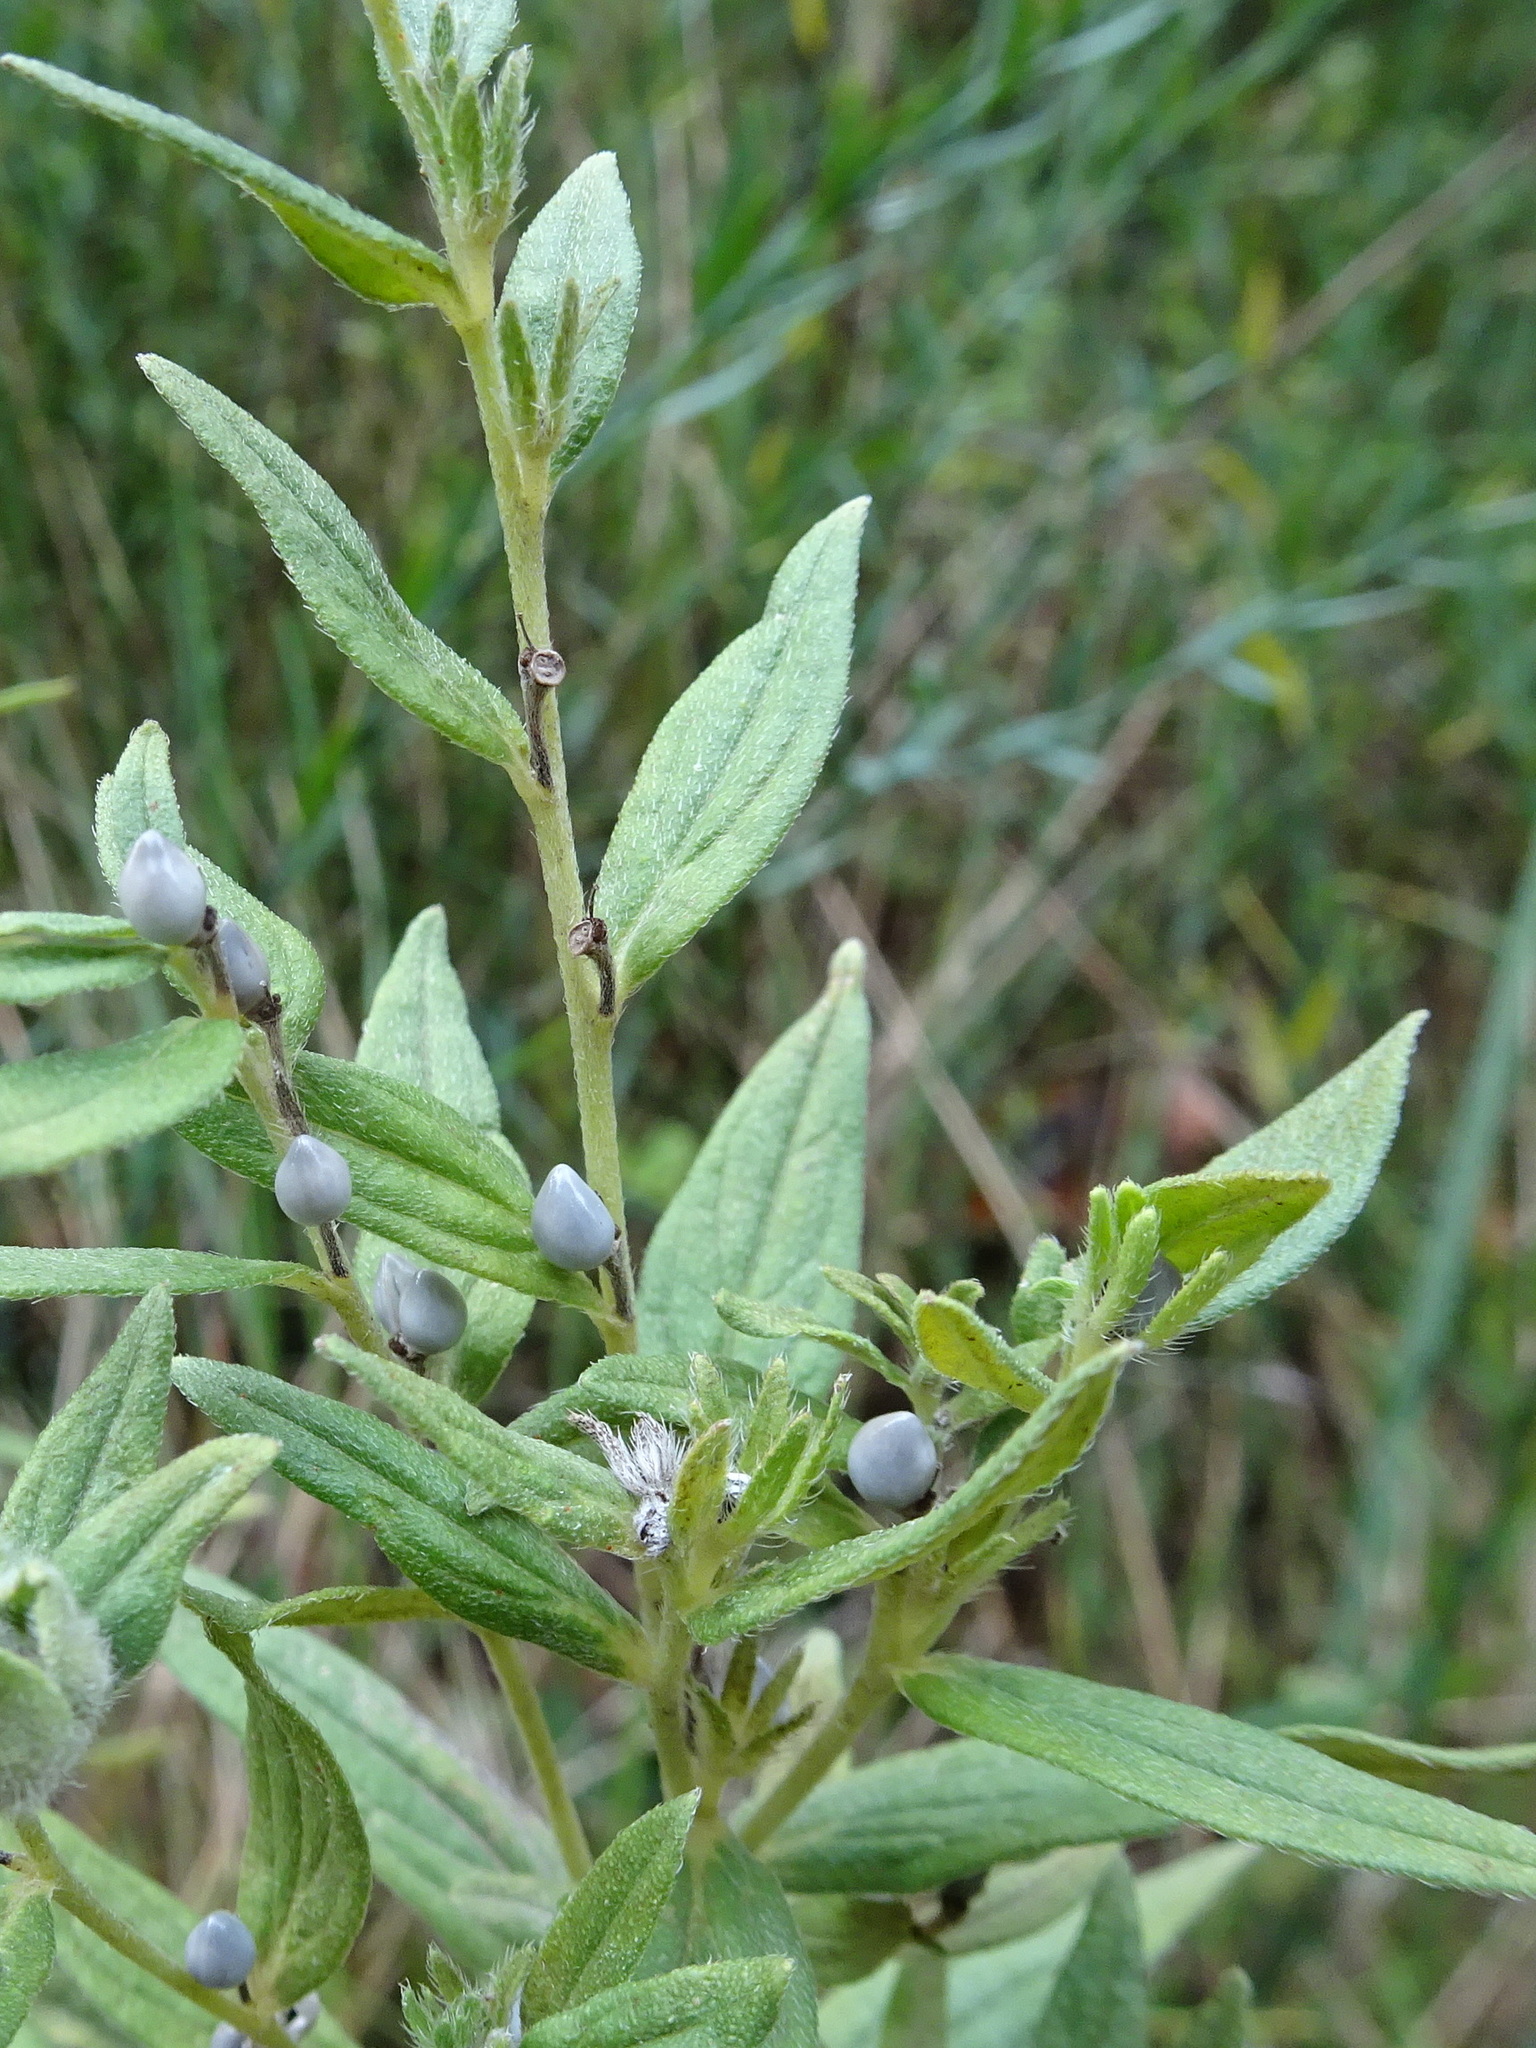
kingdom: Plantae
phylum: Tracheophyta
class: Magnoliopsida
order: Boraginales
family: Boraginaceae
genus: Lithospermum
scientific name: Lithospermum officinale
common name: Common gromwell
